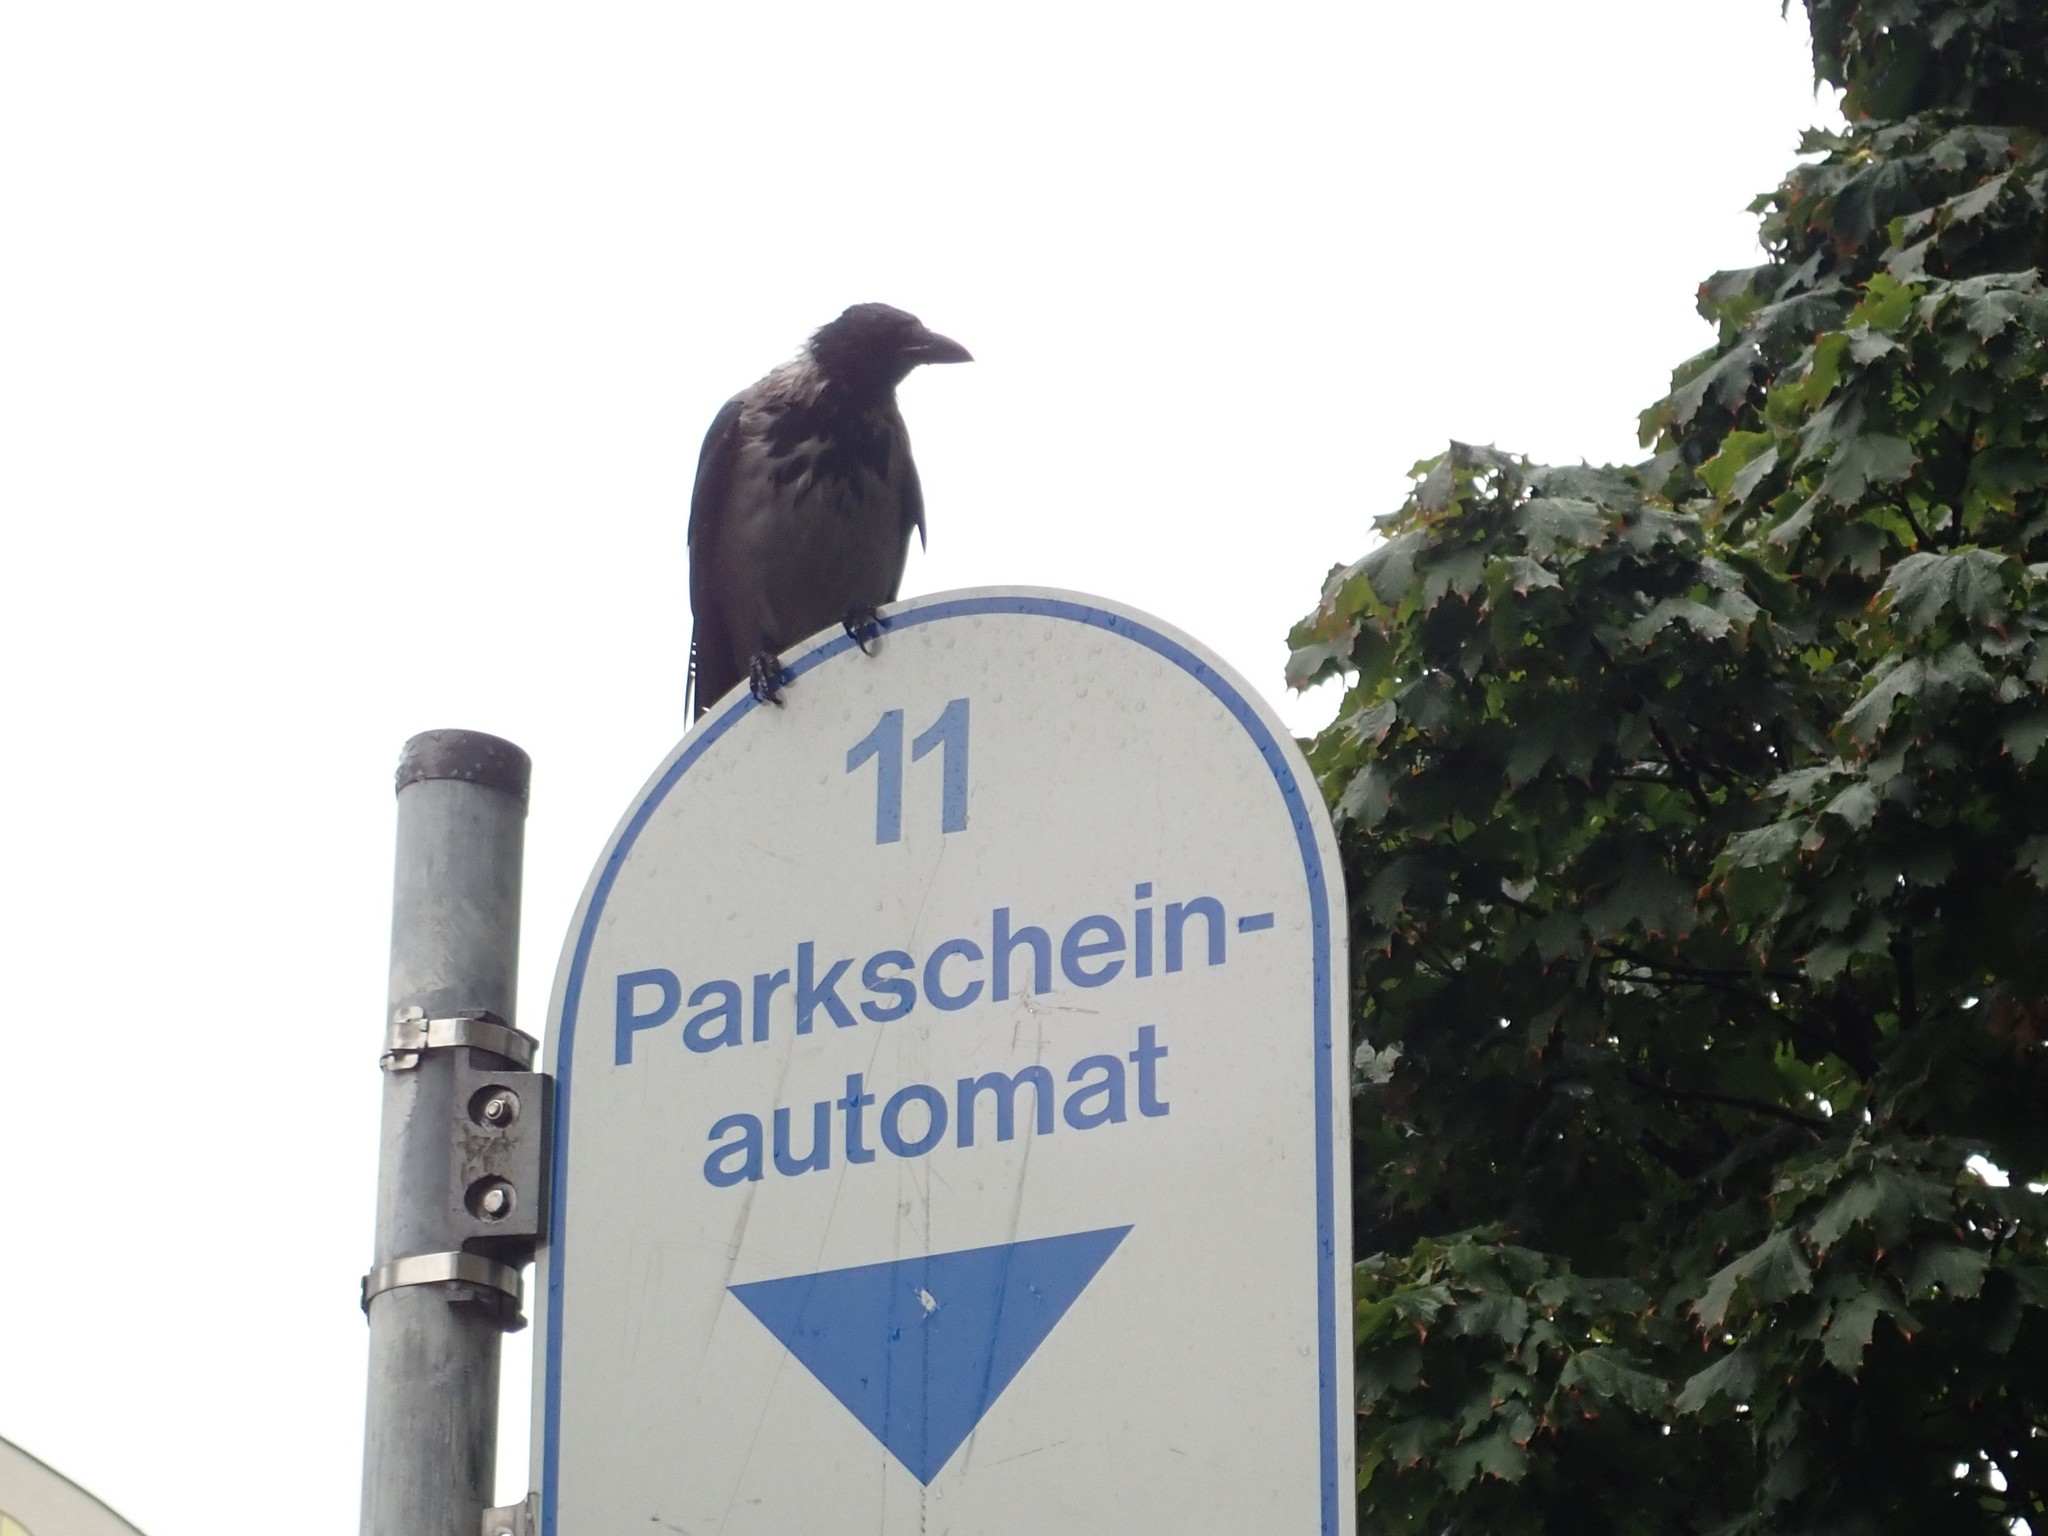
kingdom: Animalia
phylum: Chordata
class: Aves
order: Passeriformes
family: Corvidae
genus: Corvus
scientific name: Corvus cornix
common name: Hooded crow
